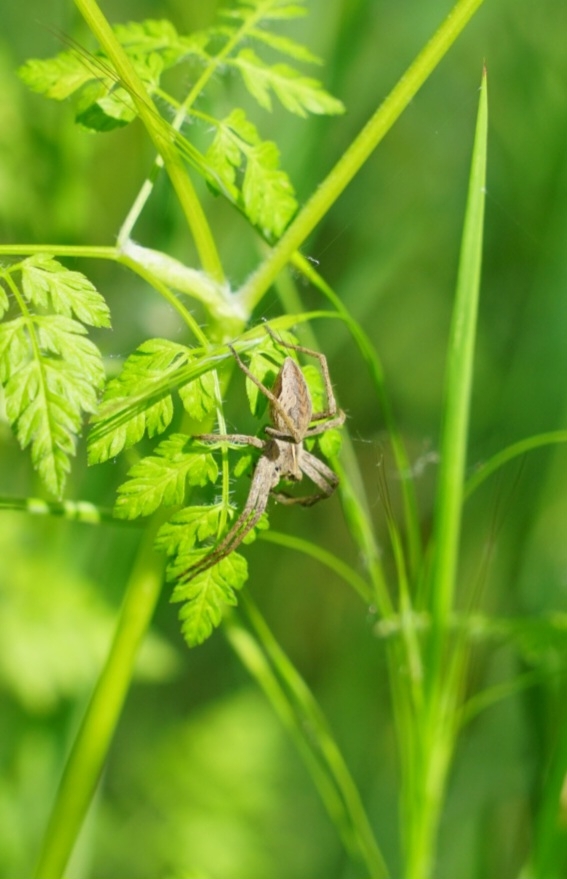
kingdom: Animalia
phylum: Arthropoda
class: Arachnida
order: Araneae
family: Pisauridae
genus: Pisaura
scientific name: Pisaura mirabilis
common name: Tent spider
